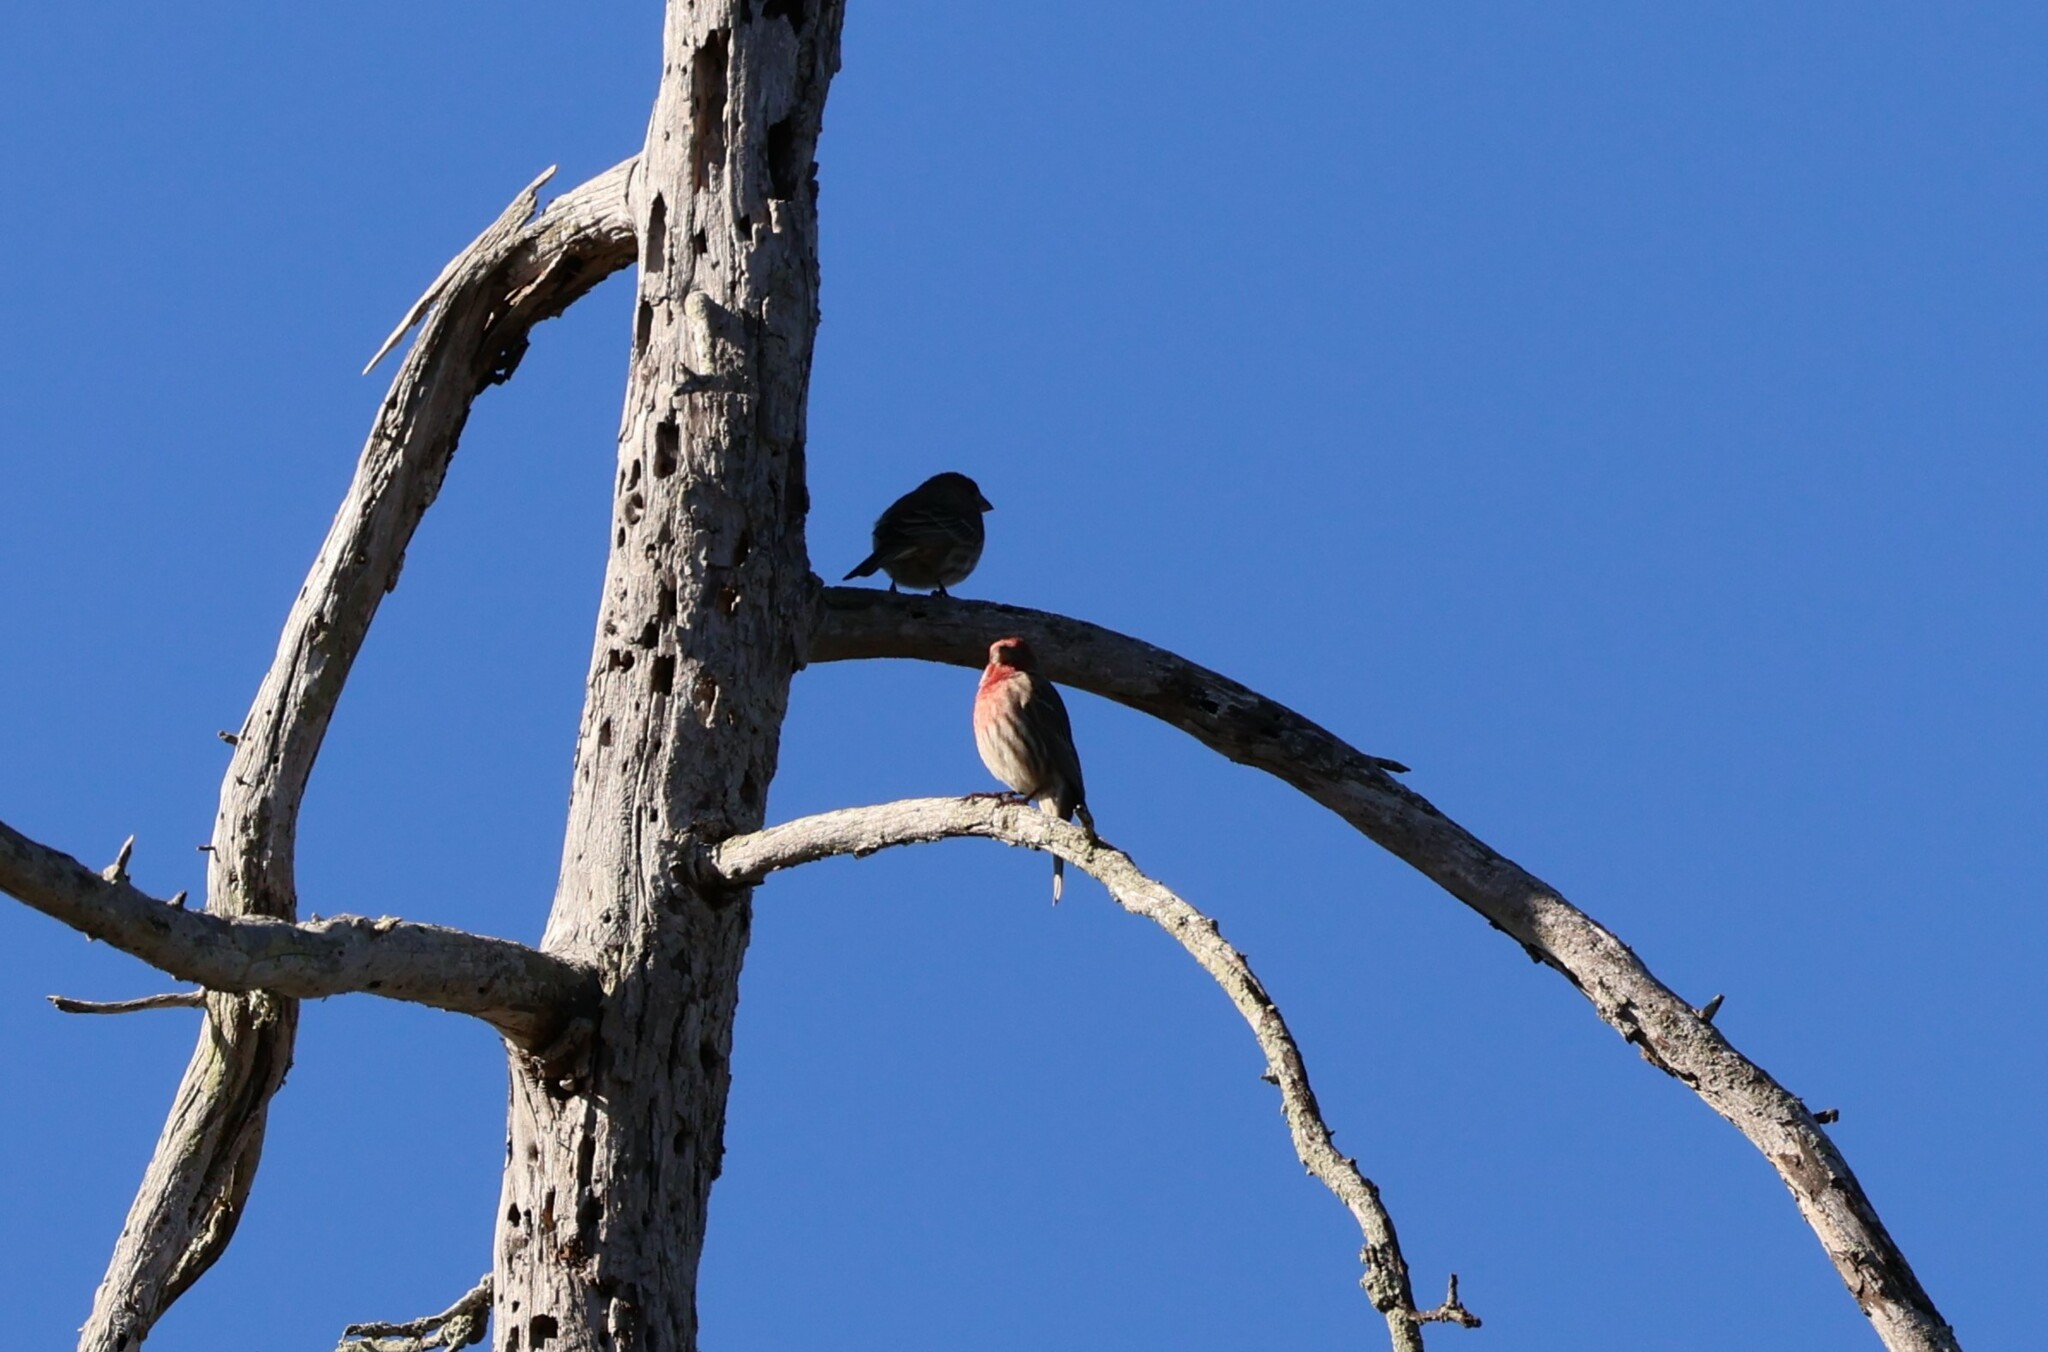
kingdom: Animalia
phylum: Chordata
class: Aves
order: Passeriformes
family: Fringillidae
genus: Haemorhous
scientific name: Haemorhous mexicanus
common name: House finch
